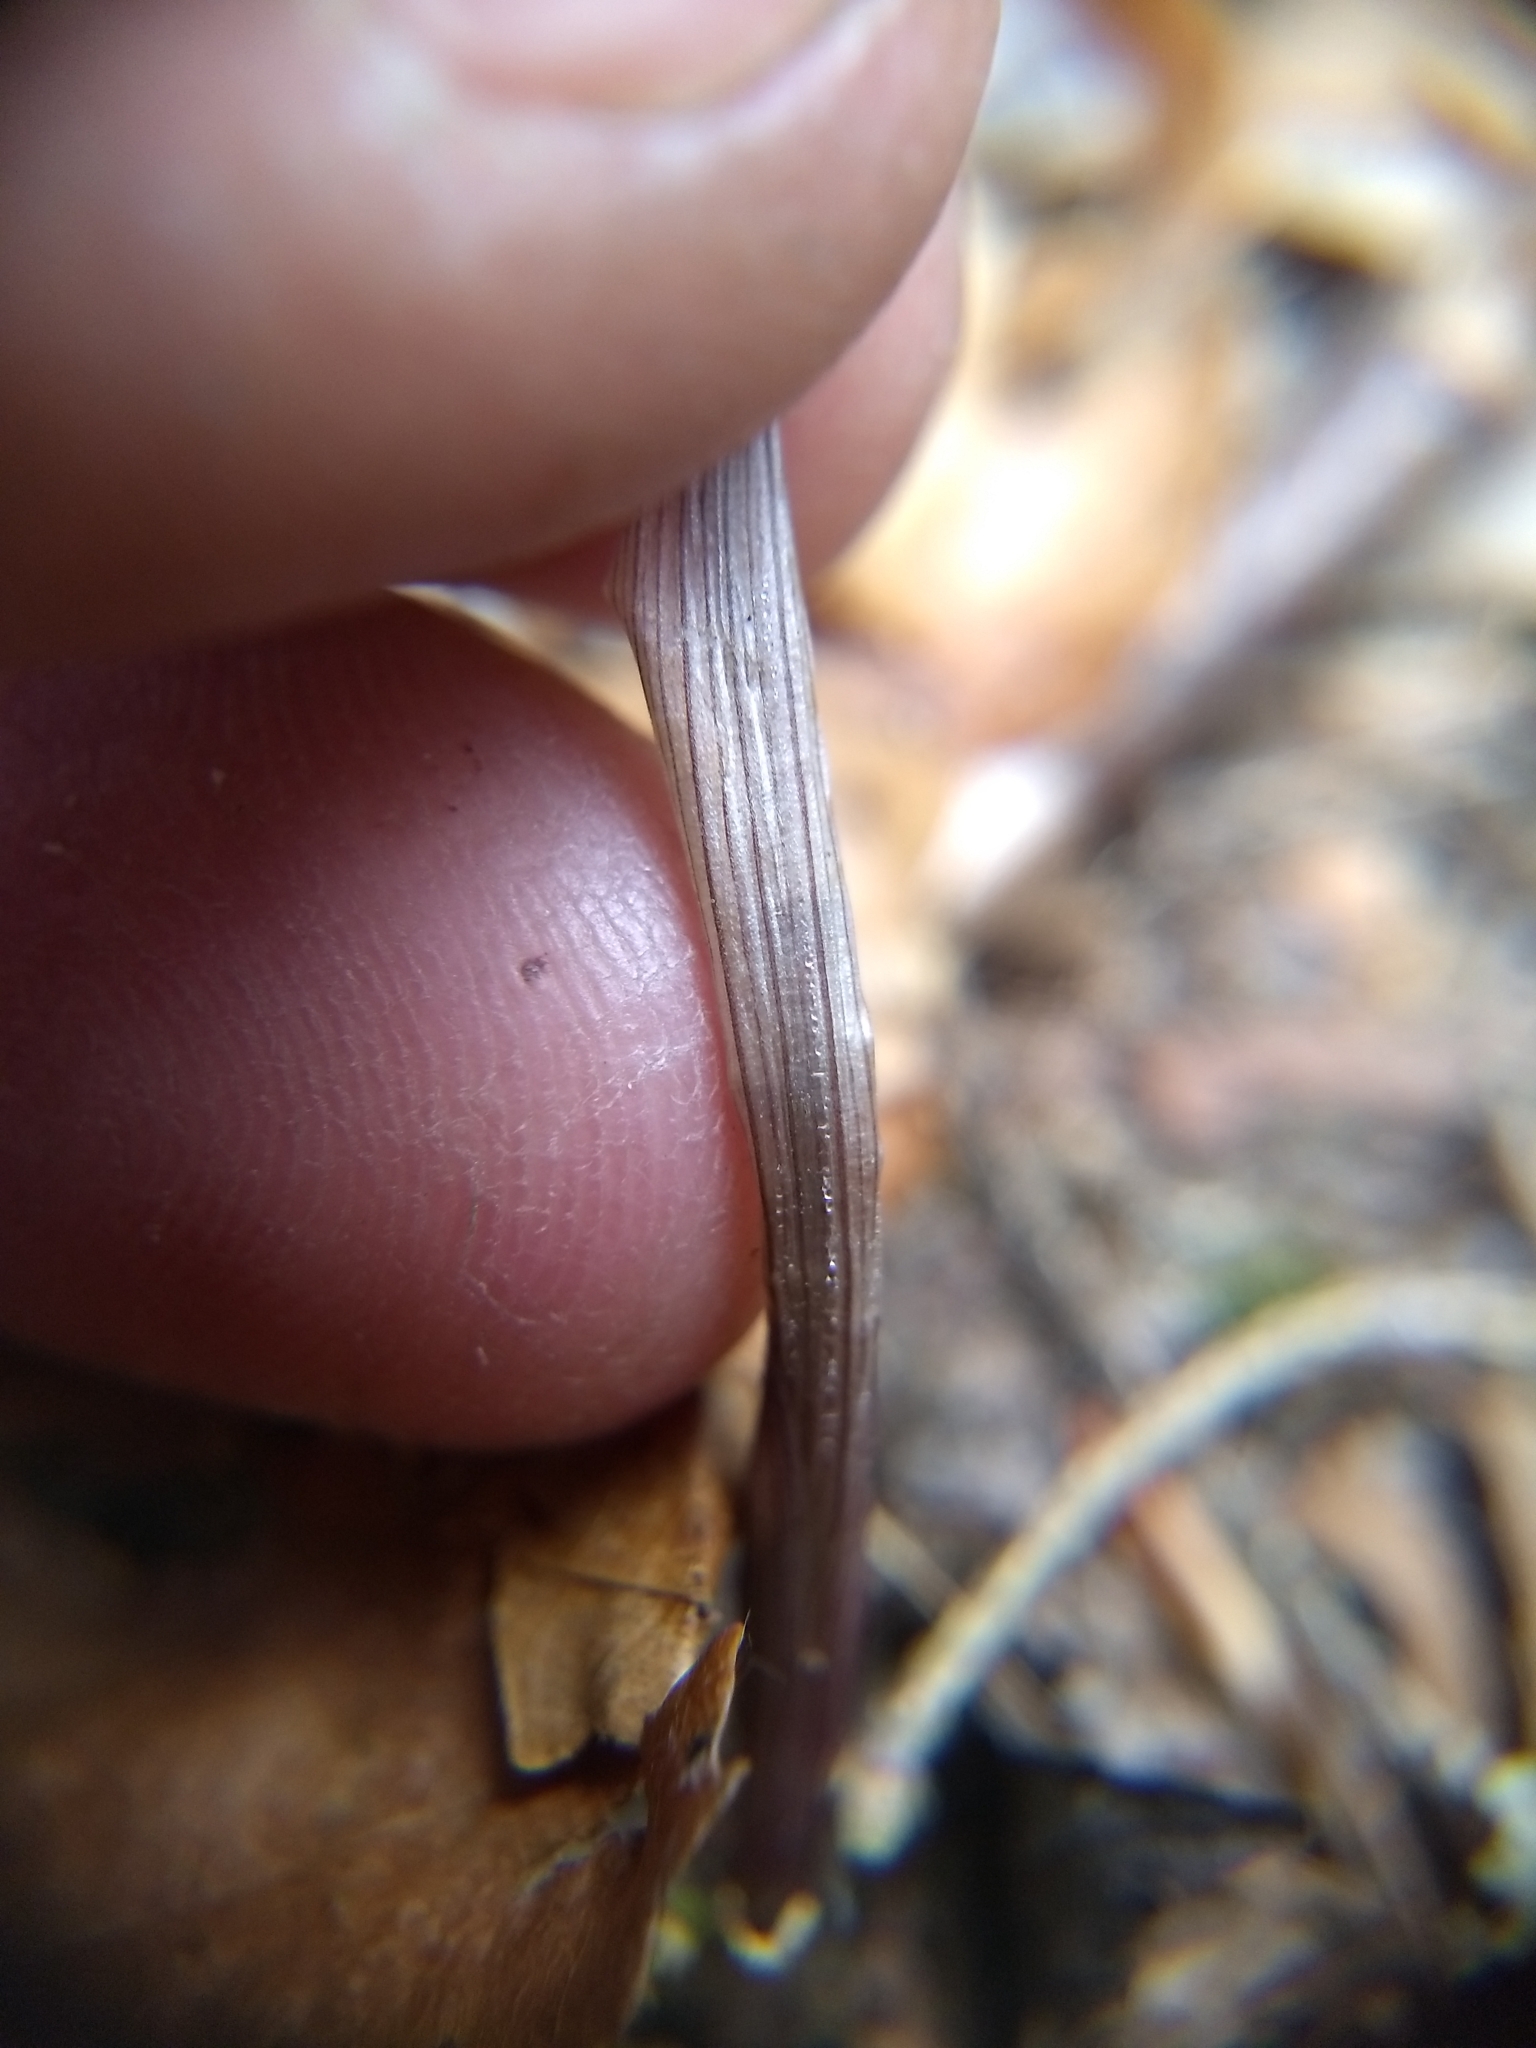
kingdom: Plantae
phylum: Tracheophyta
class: Liliopsida
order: Liliales
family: Colchicaceae
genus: Uvularia
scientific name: Uvularia sessilifolia
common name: Straw-lily
